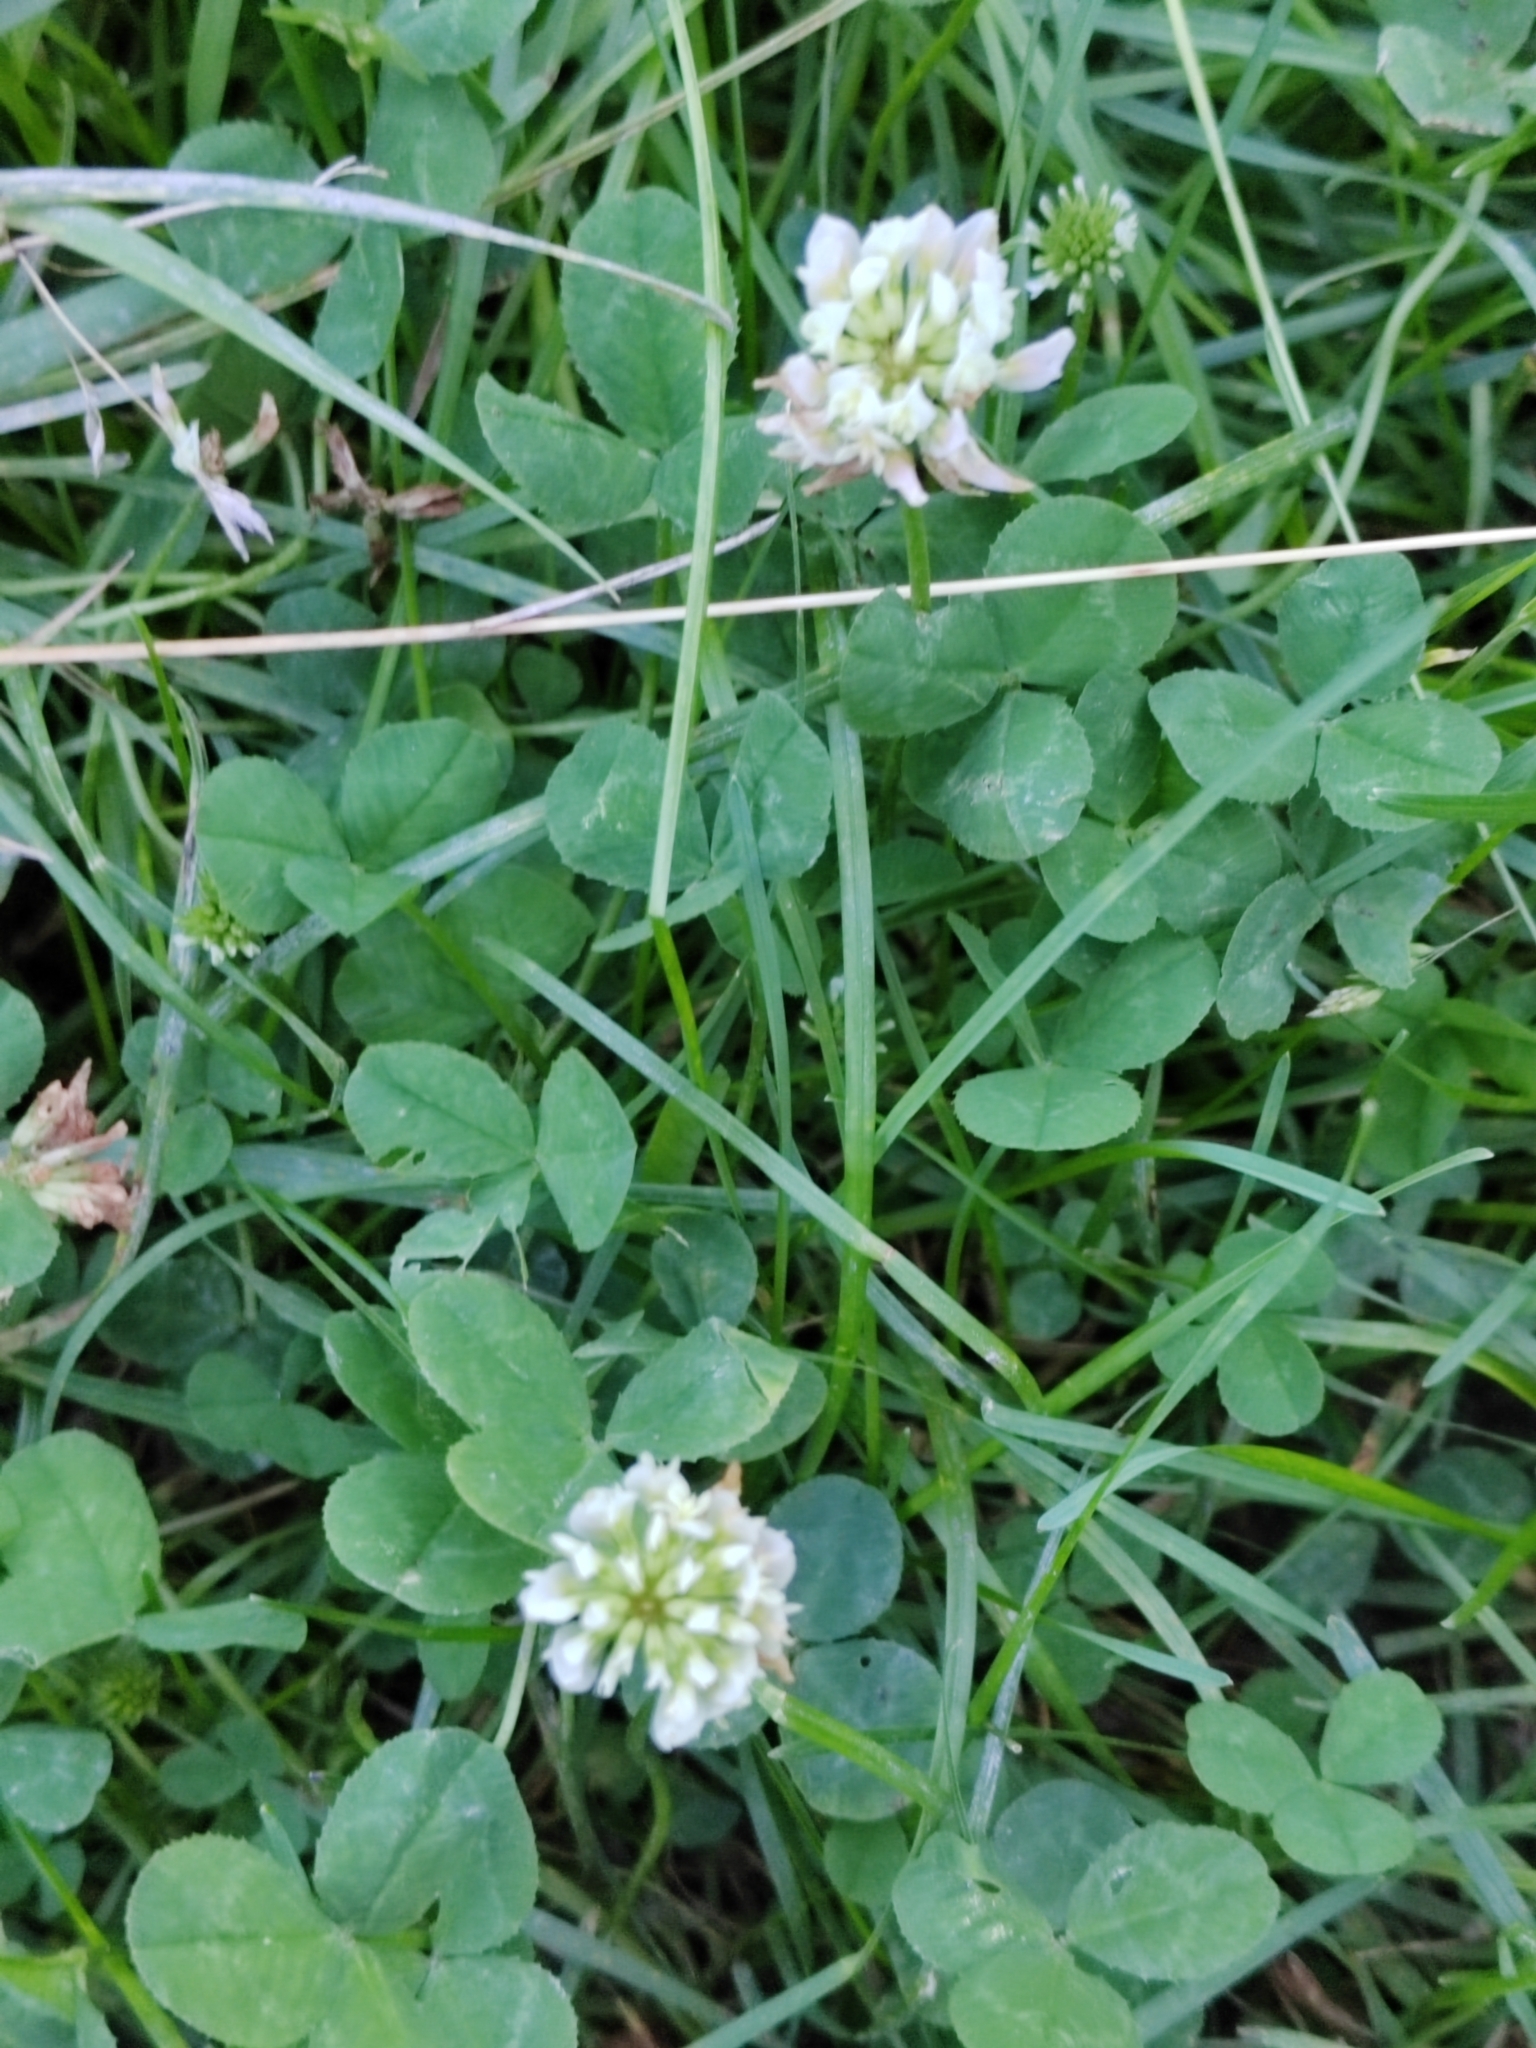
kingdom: Plantae
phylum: Tracheophyta
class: Magnoliopsida
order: Fabales
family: Fabaceae
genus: Trifolium
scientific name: Trifolium repens
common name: White clover
